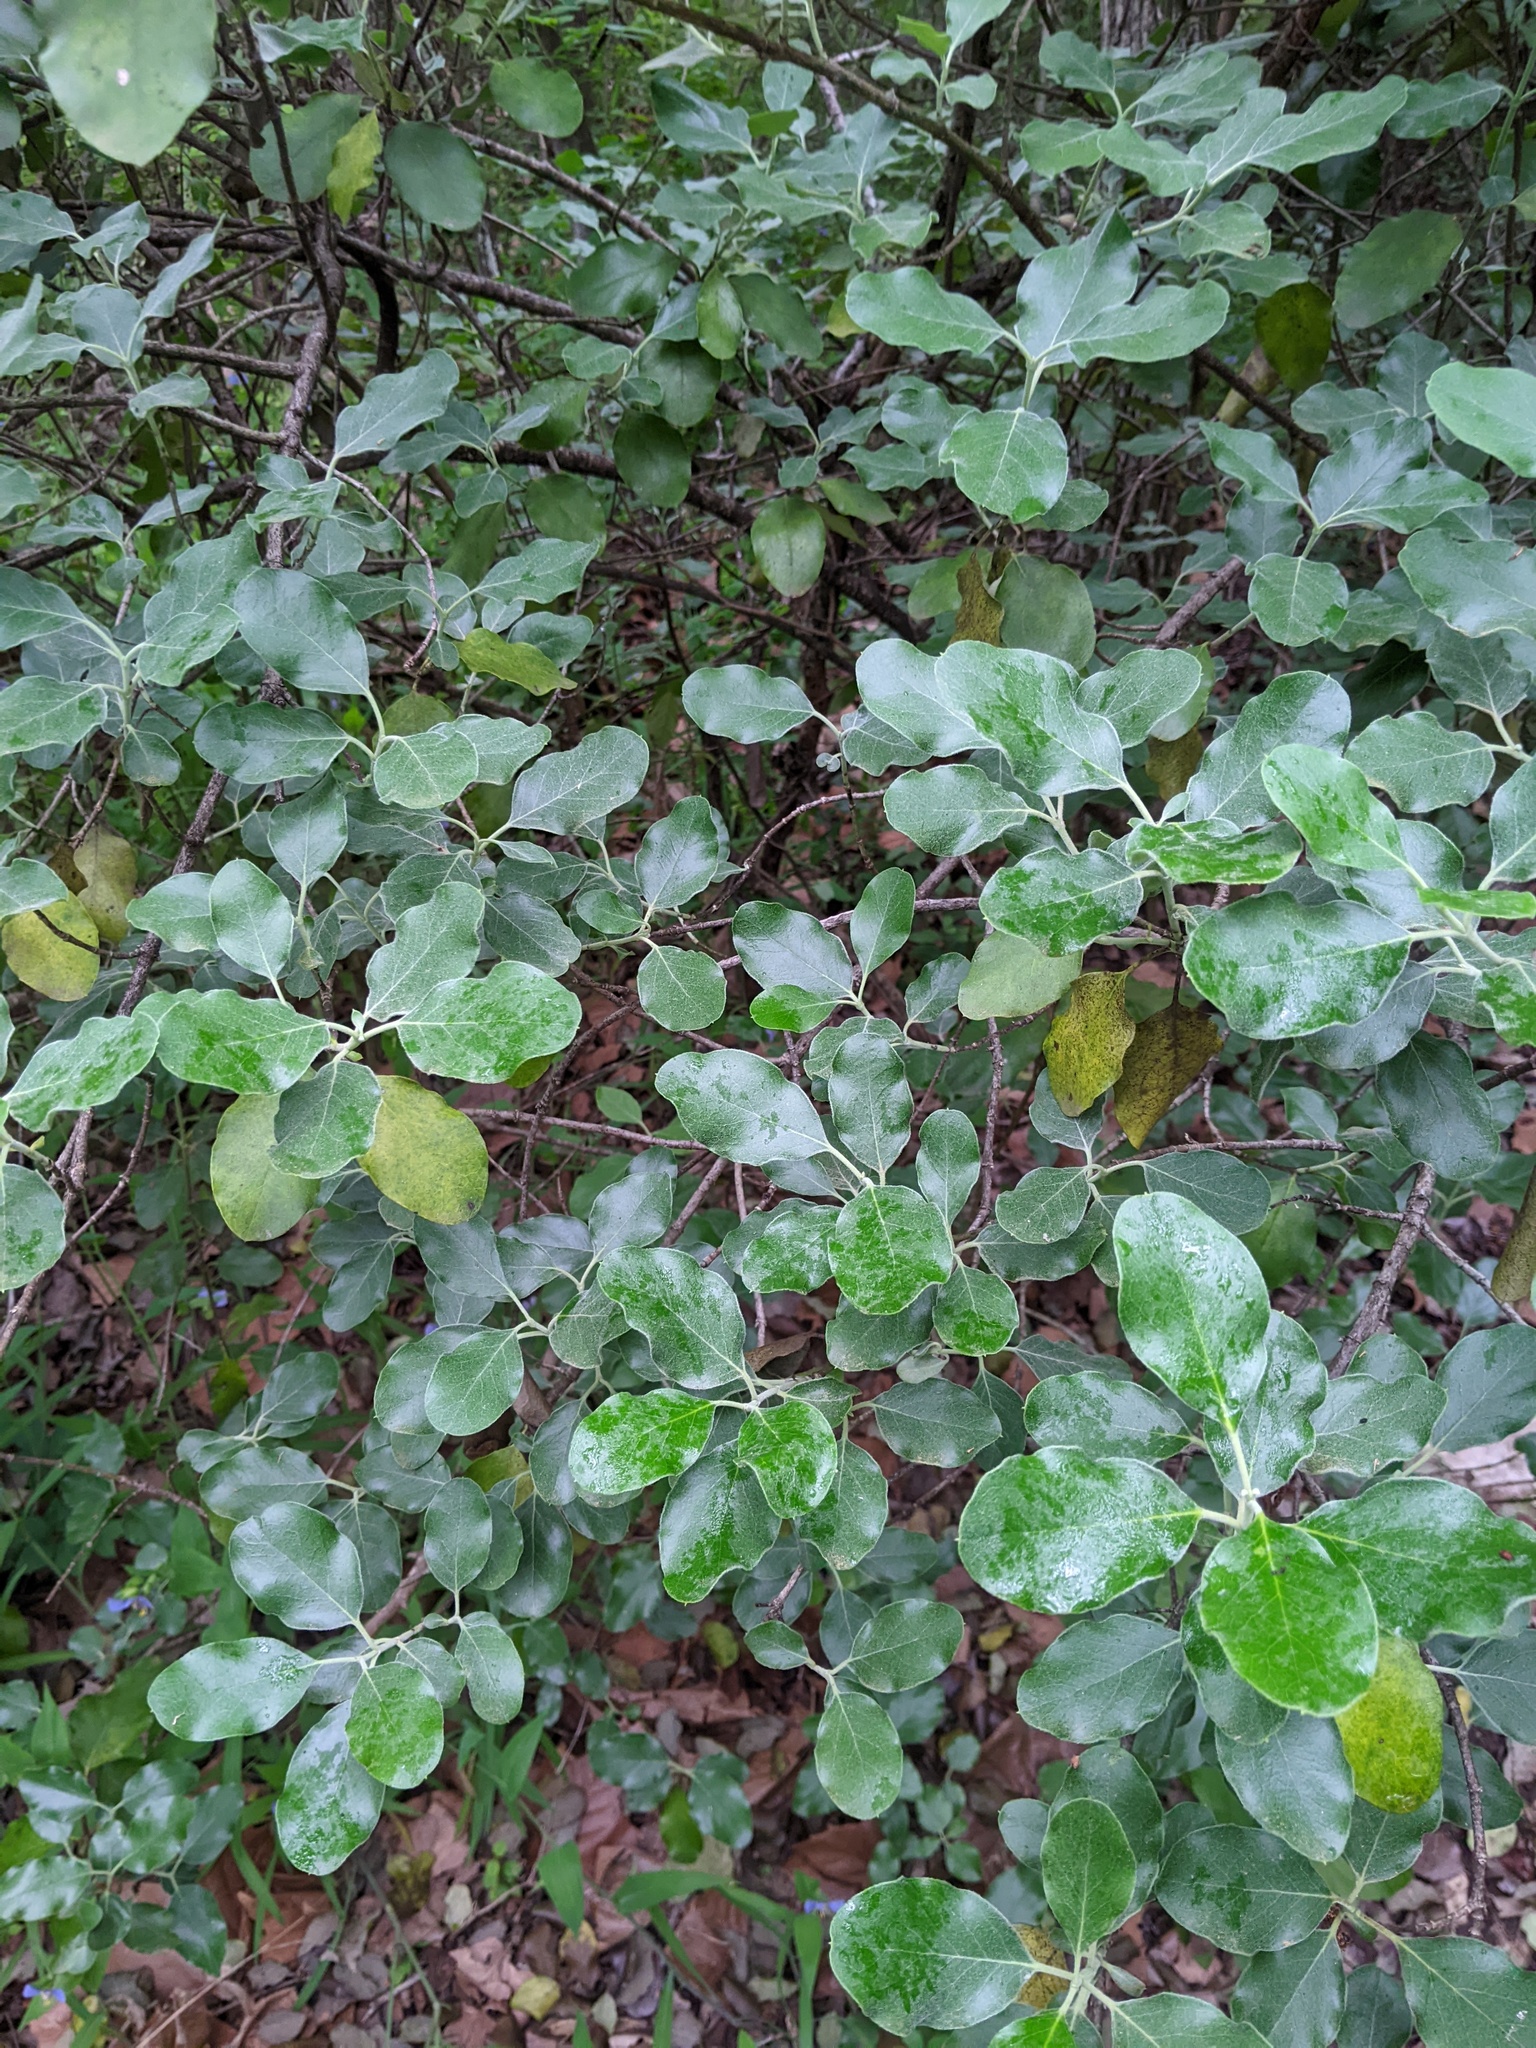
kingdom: Plantae
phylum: Tracheophyta
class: Magnoliopsida
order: Garryales
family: Garryaceae
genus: Garrya
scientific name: Garrya lindheimeri
